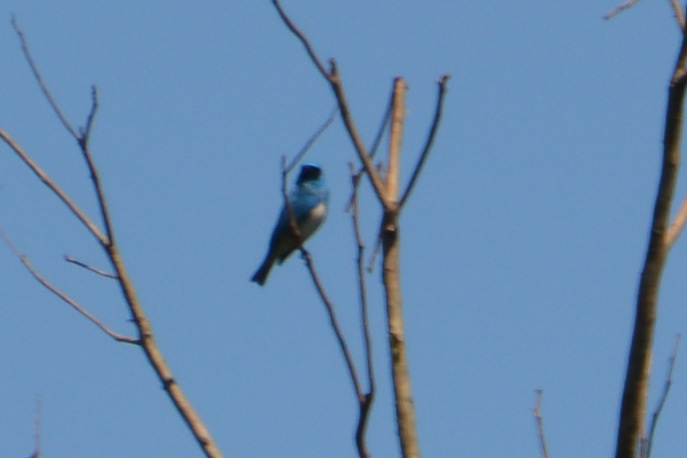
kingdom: Animalia
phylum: Chordata
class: Aves
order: Passeriformes
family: Thraupidae
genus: Tersina
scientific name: Tersina viridis
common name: Swallow tanager
